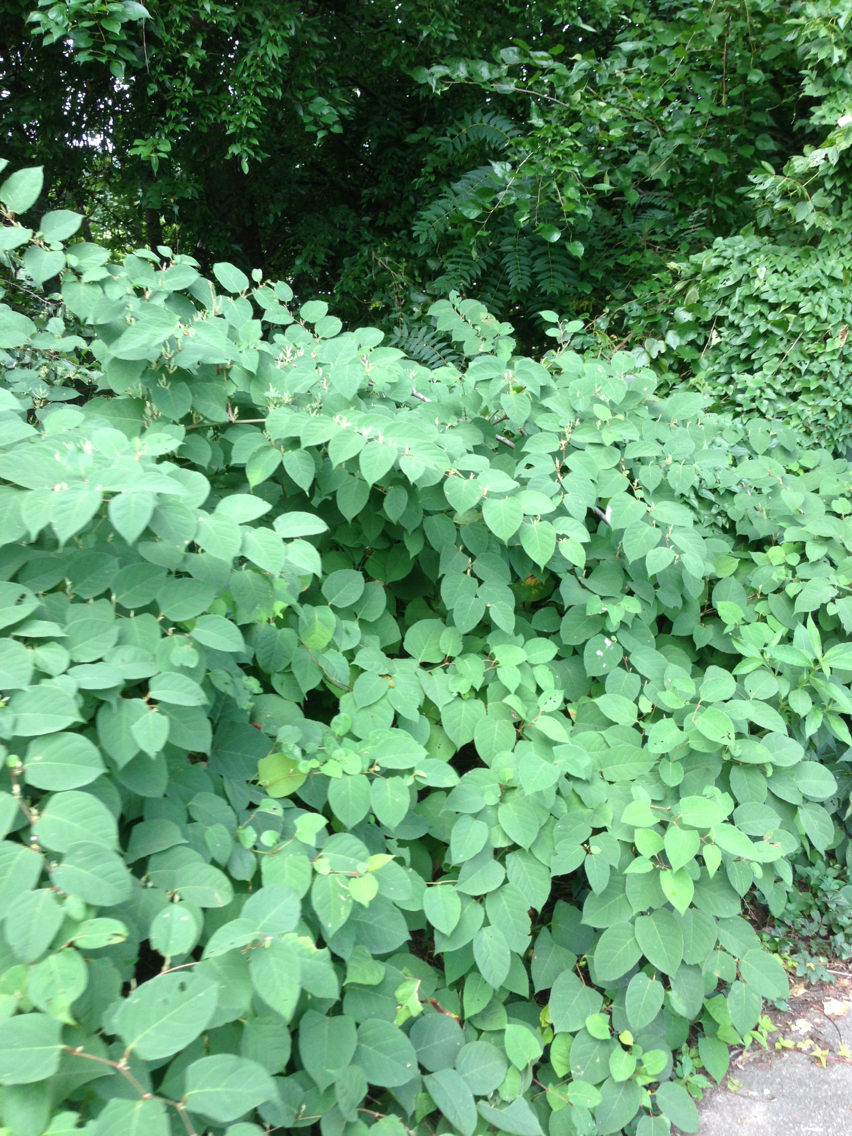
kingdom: Plantae
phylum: Tracheophyta
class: Magnoliopsida
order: Caryophyllales
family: Polygonaceae
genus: Reynoutria
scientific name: Reynoutria japonica
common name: Japanese knotweed
